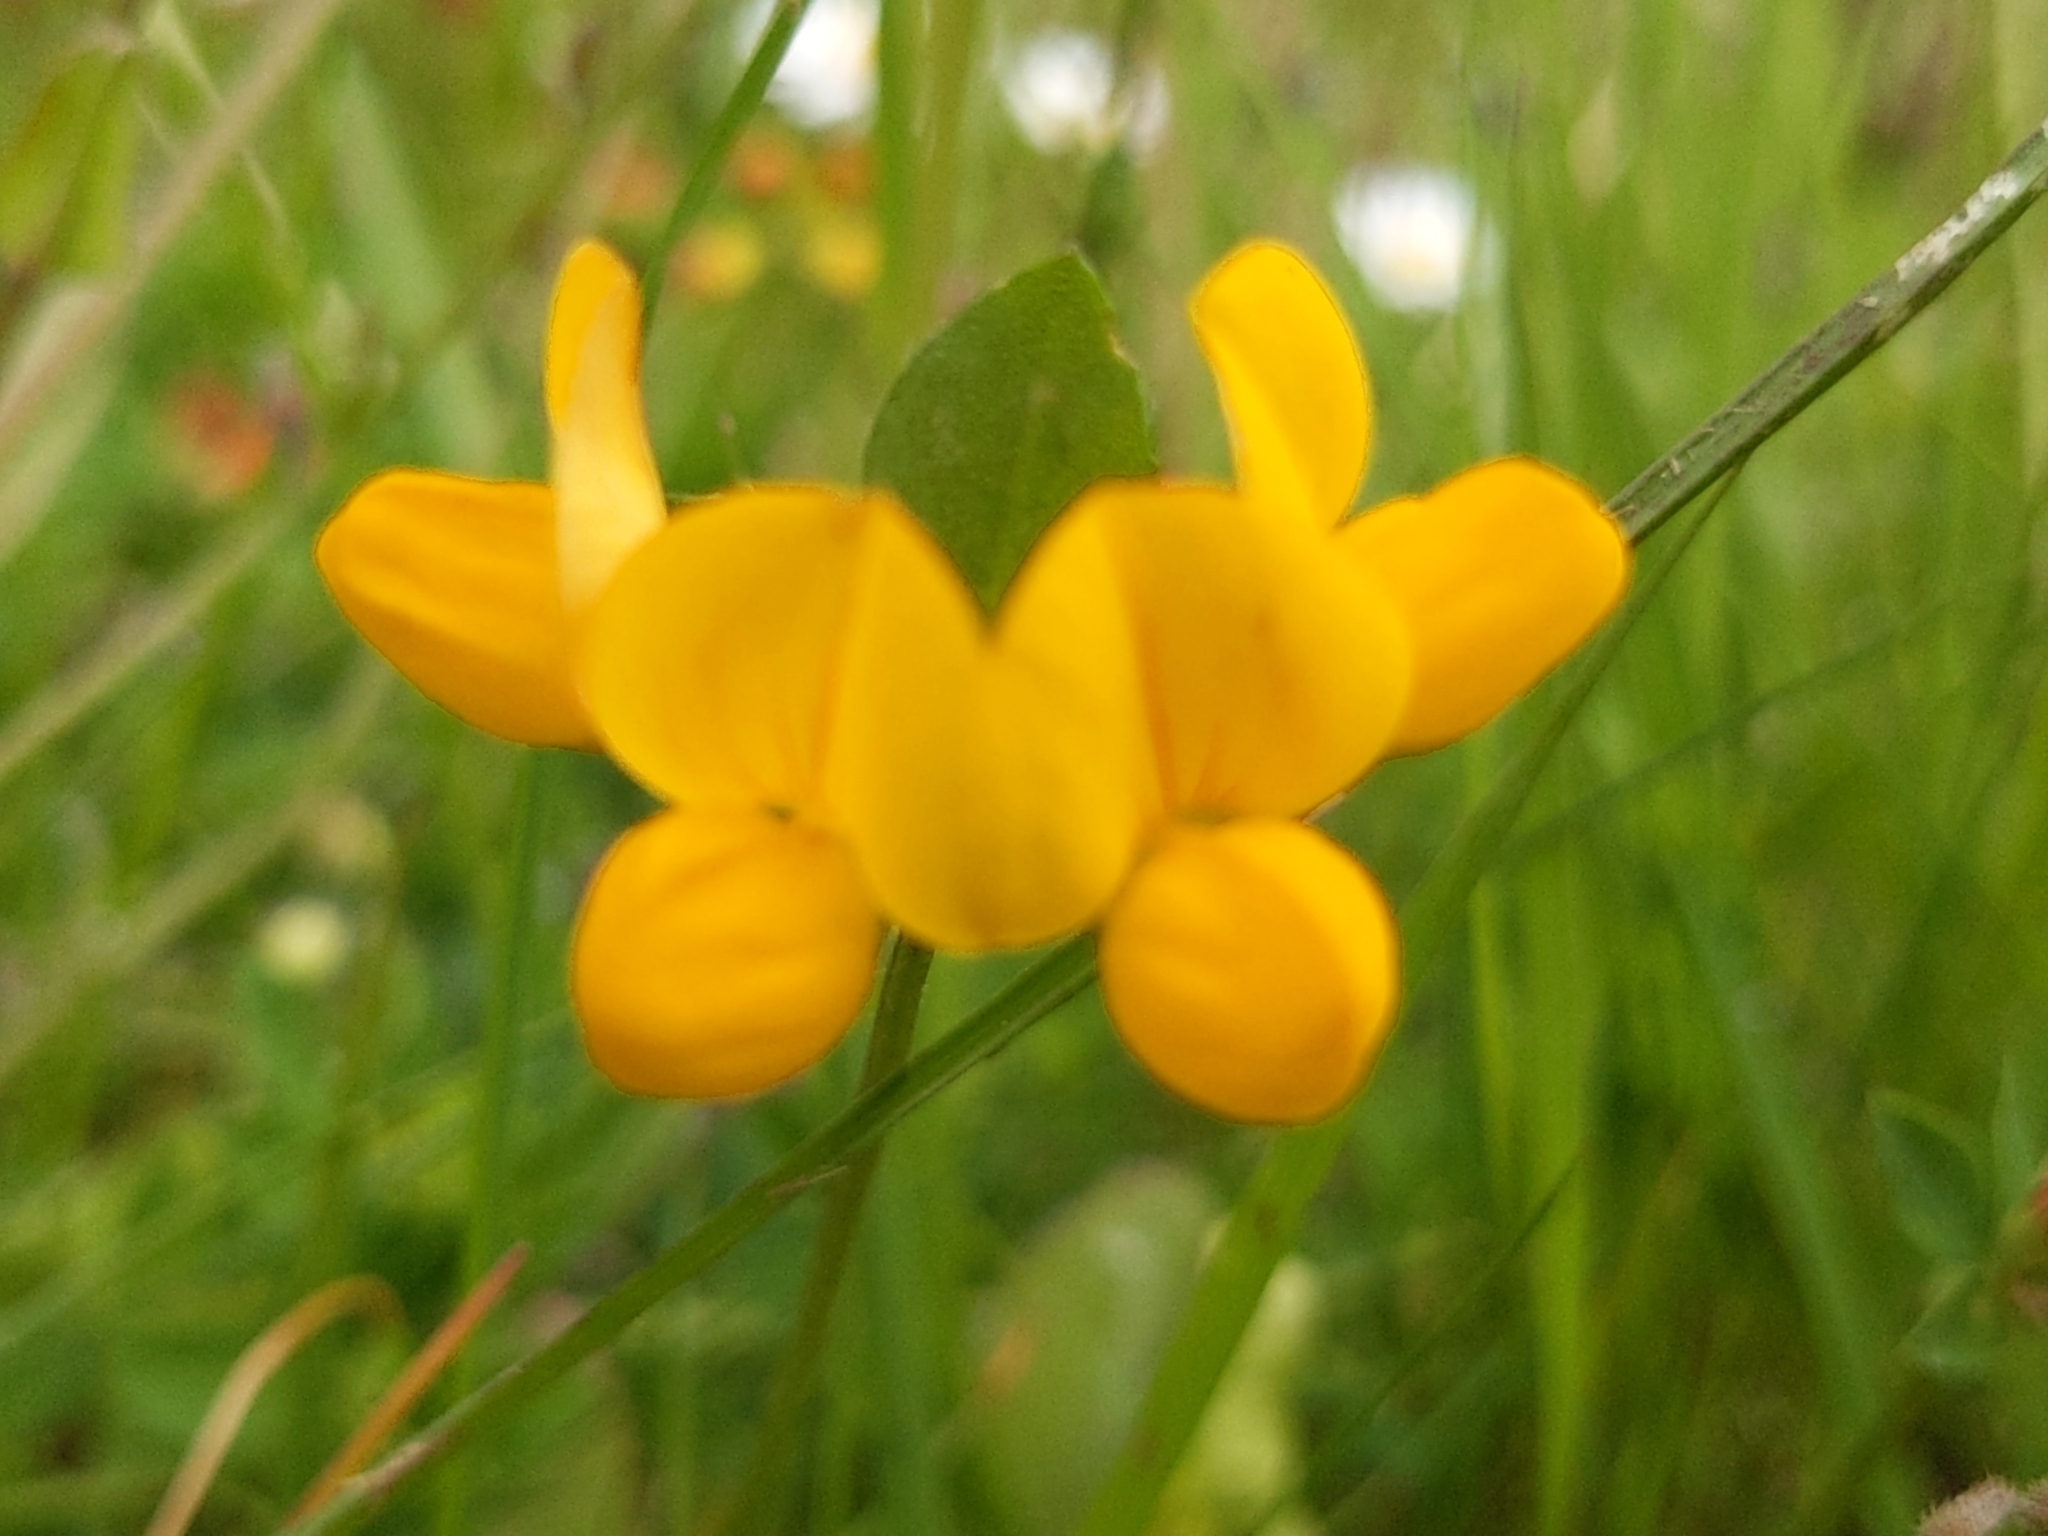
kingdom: Plantae
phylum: Tracheophyta
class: Magnoliopsida
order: Fabales
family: Fabaceae
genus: Lotus
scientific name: Lotus corniculatus
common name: Common bird's-foot-trefoil
